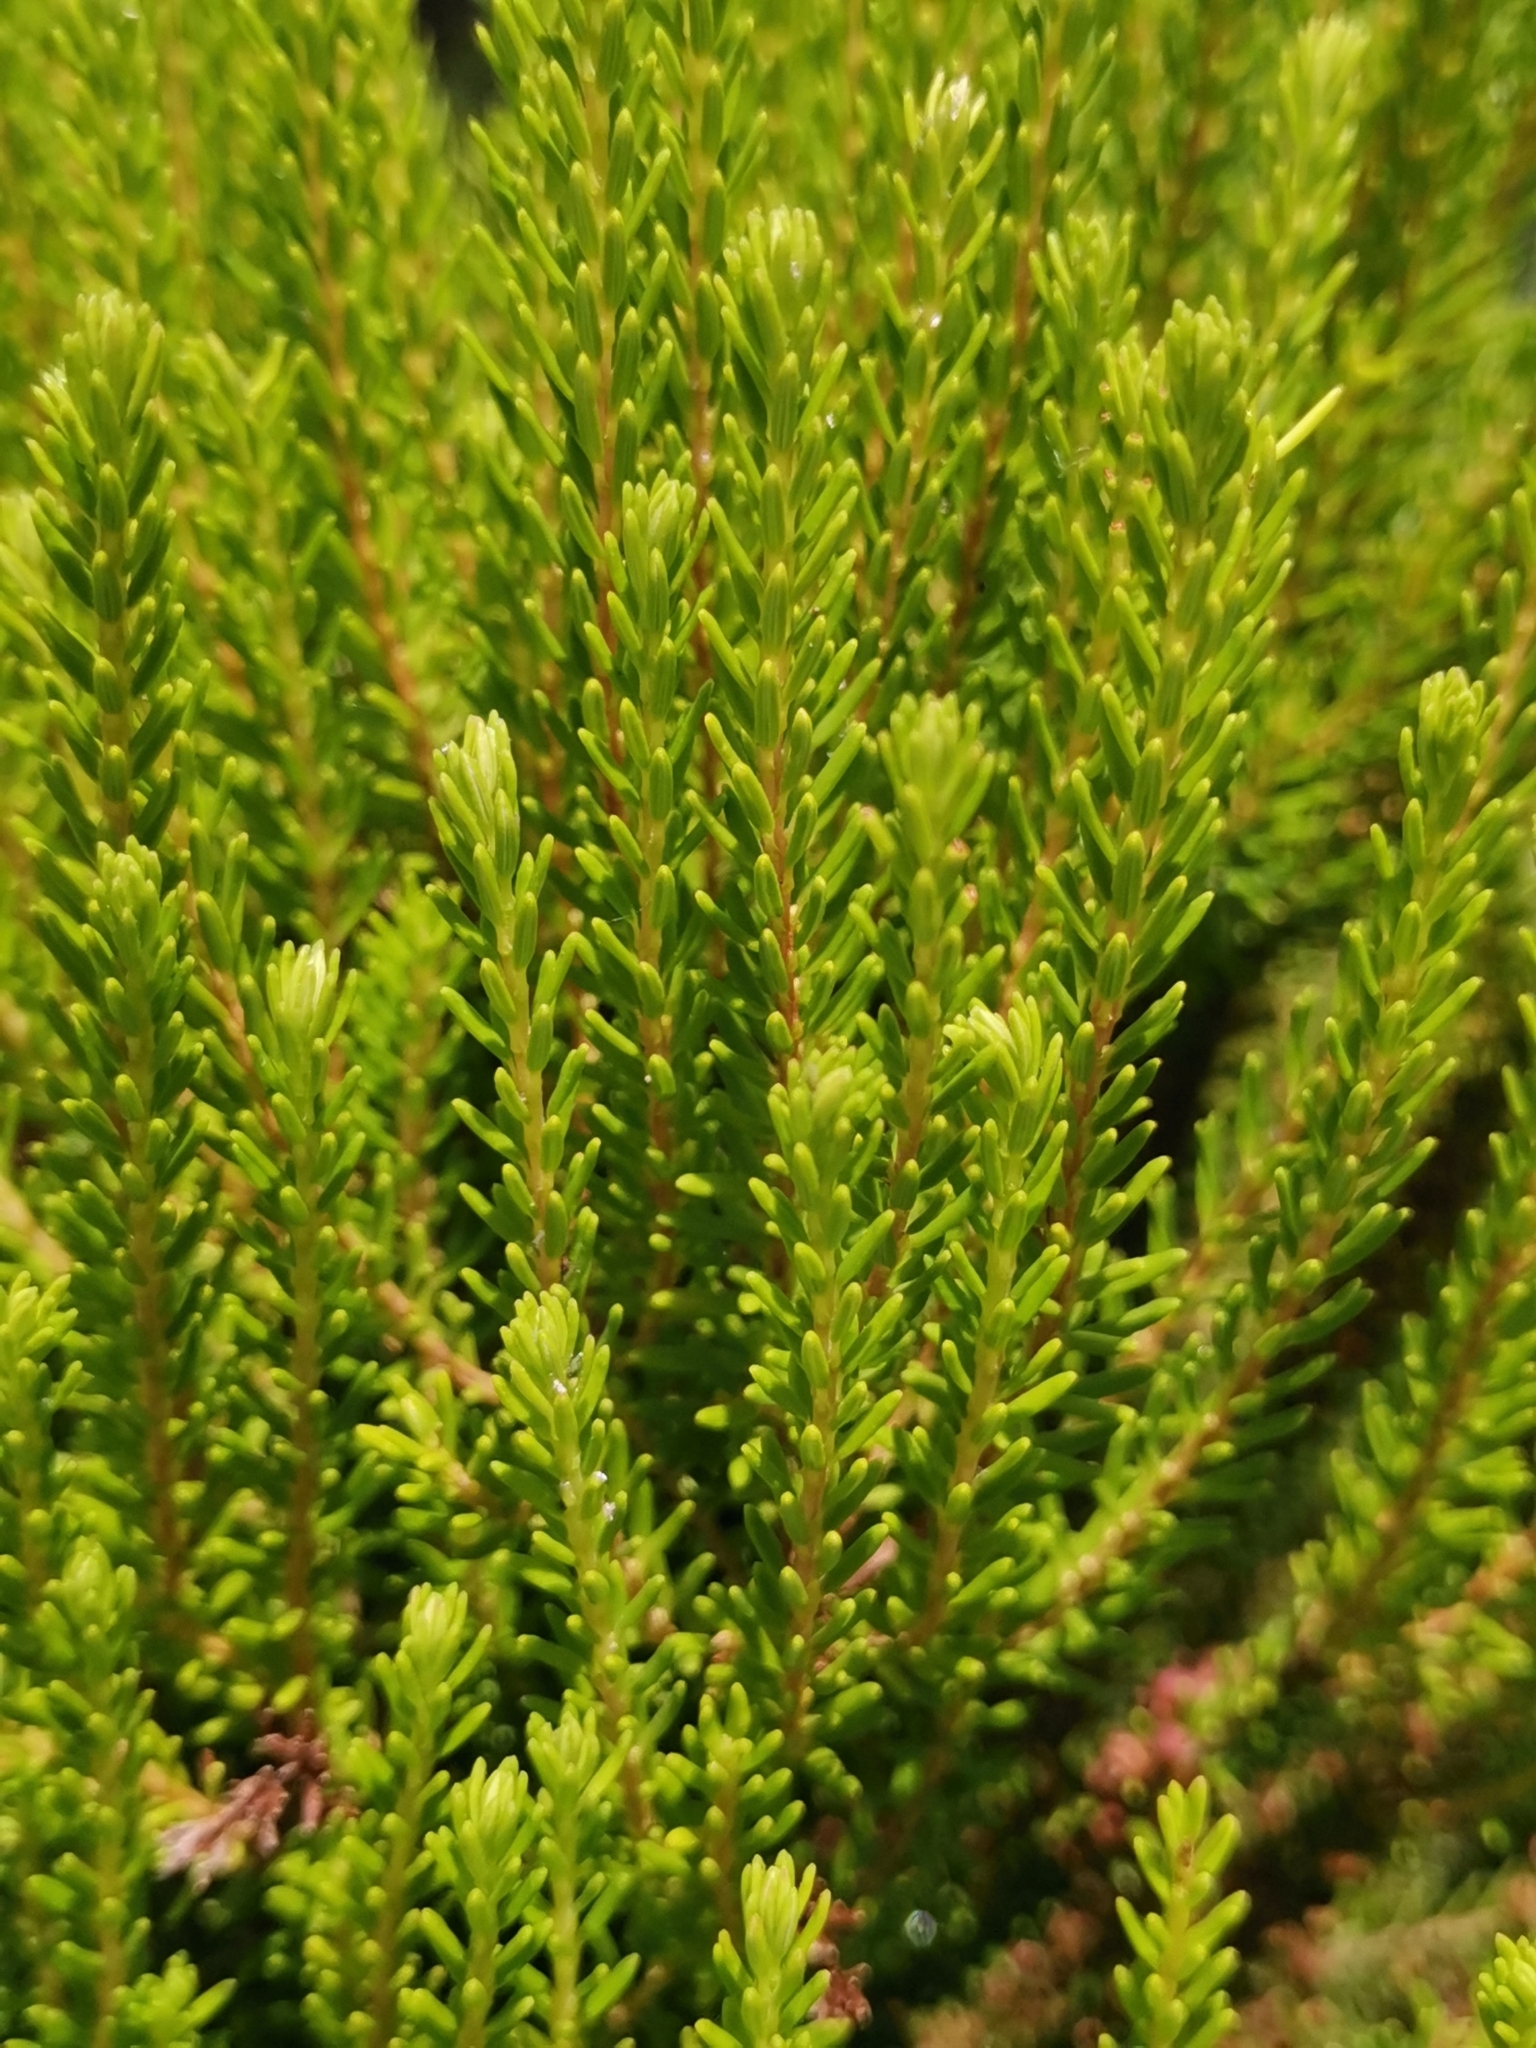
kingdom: Plantae
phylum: Tracheophyta
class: Magnoliopsida
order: Ericales
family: Ericaceae
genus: Erica
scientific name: Erica azorica
